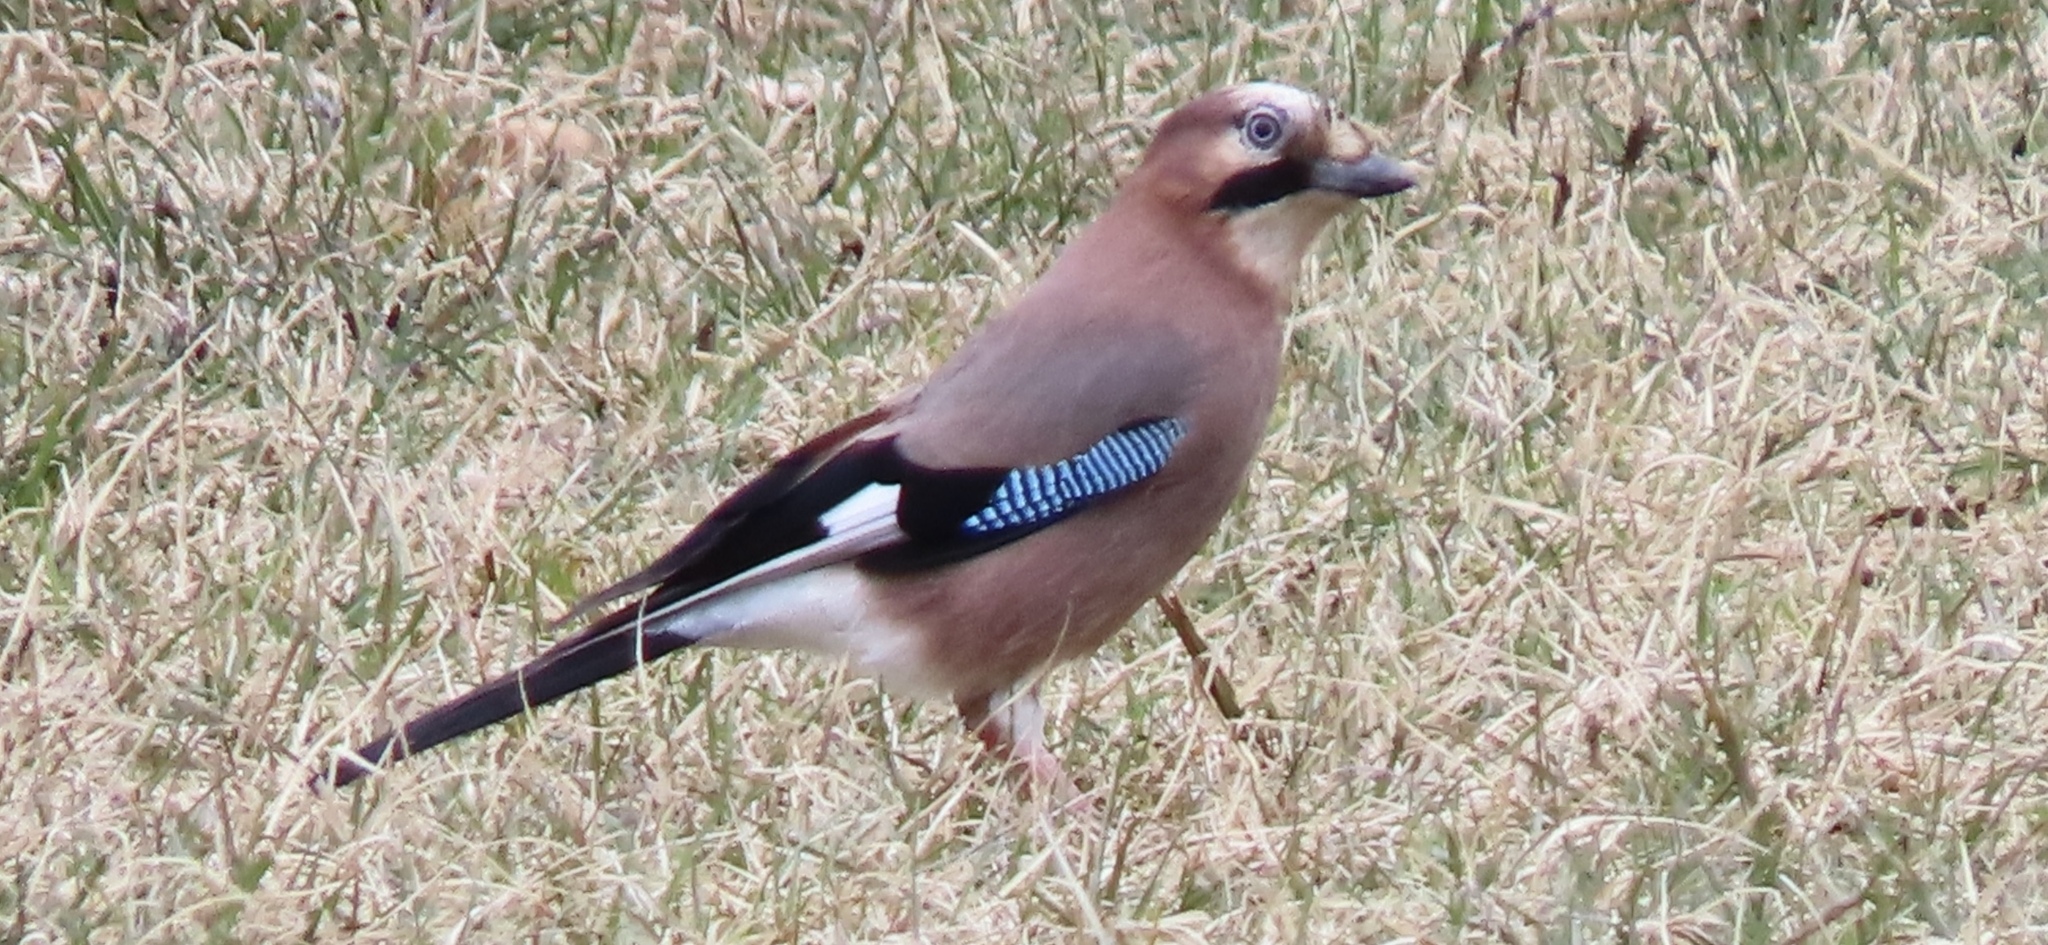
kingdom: Animalia
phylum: Chordata
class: Aves
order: Passeriformes
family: Corvidae
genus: Garrulus
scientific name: Garrulus glandarius
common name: Eurasian jay
